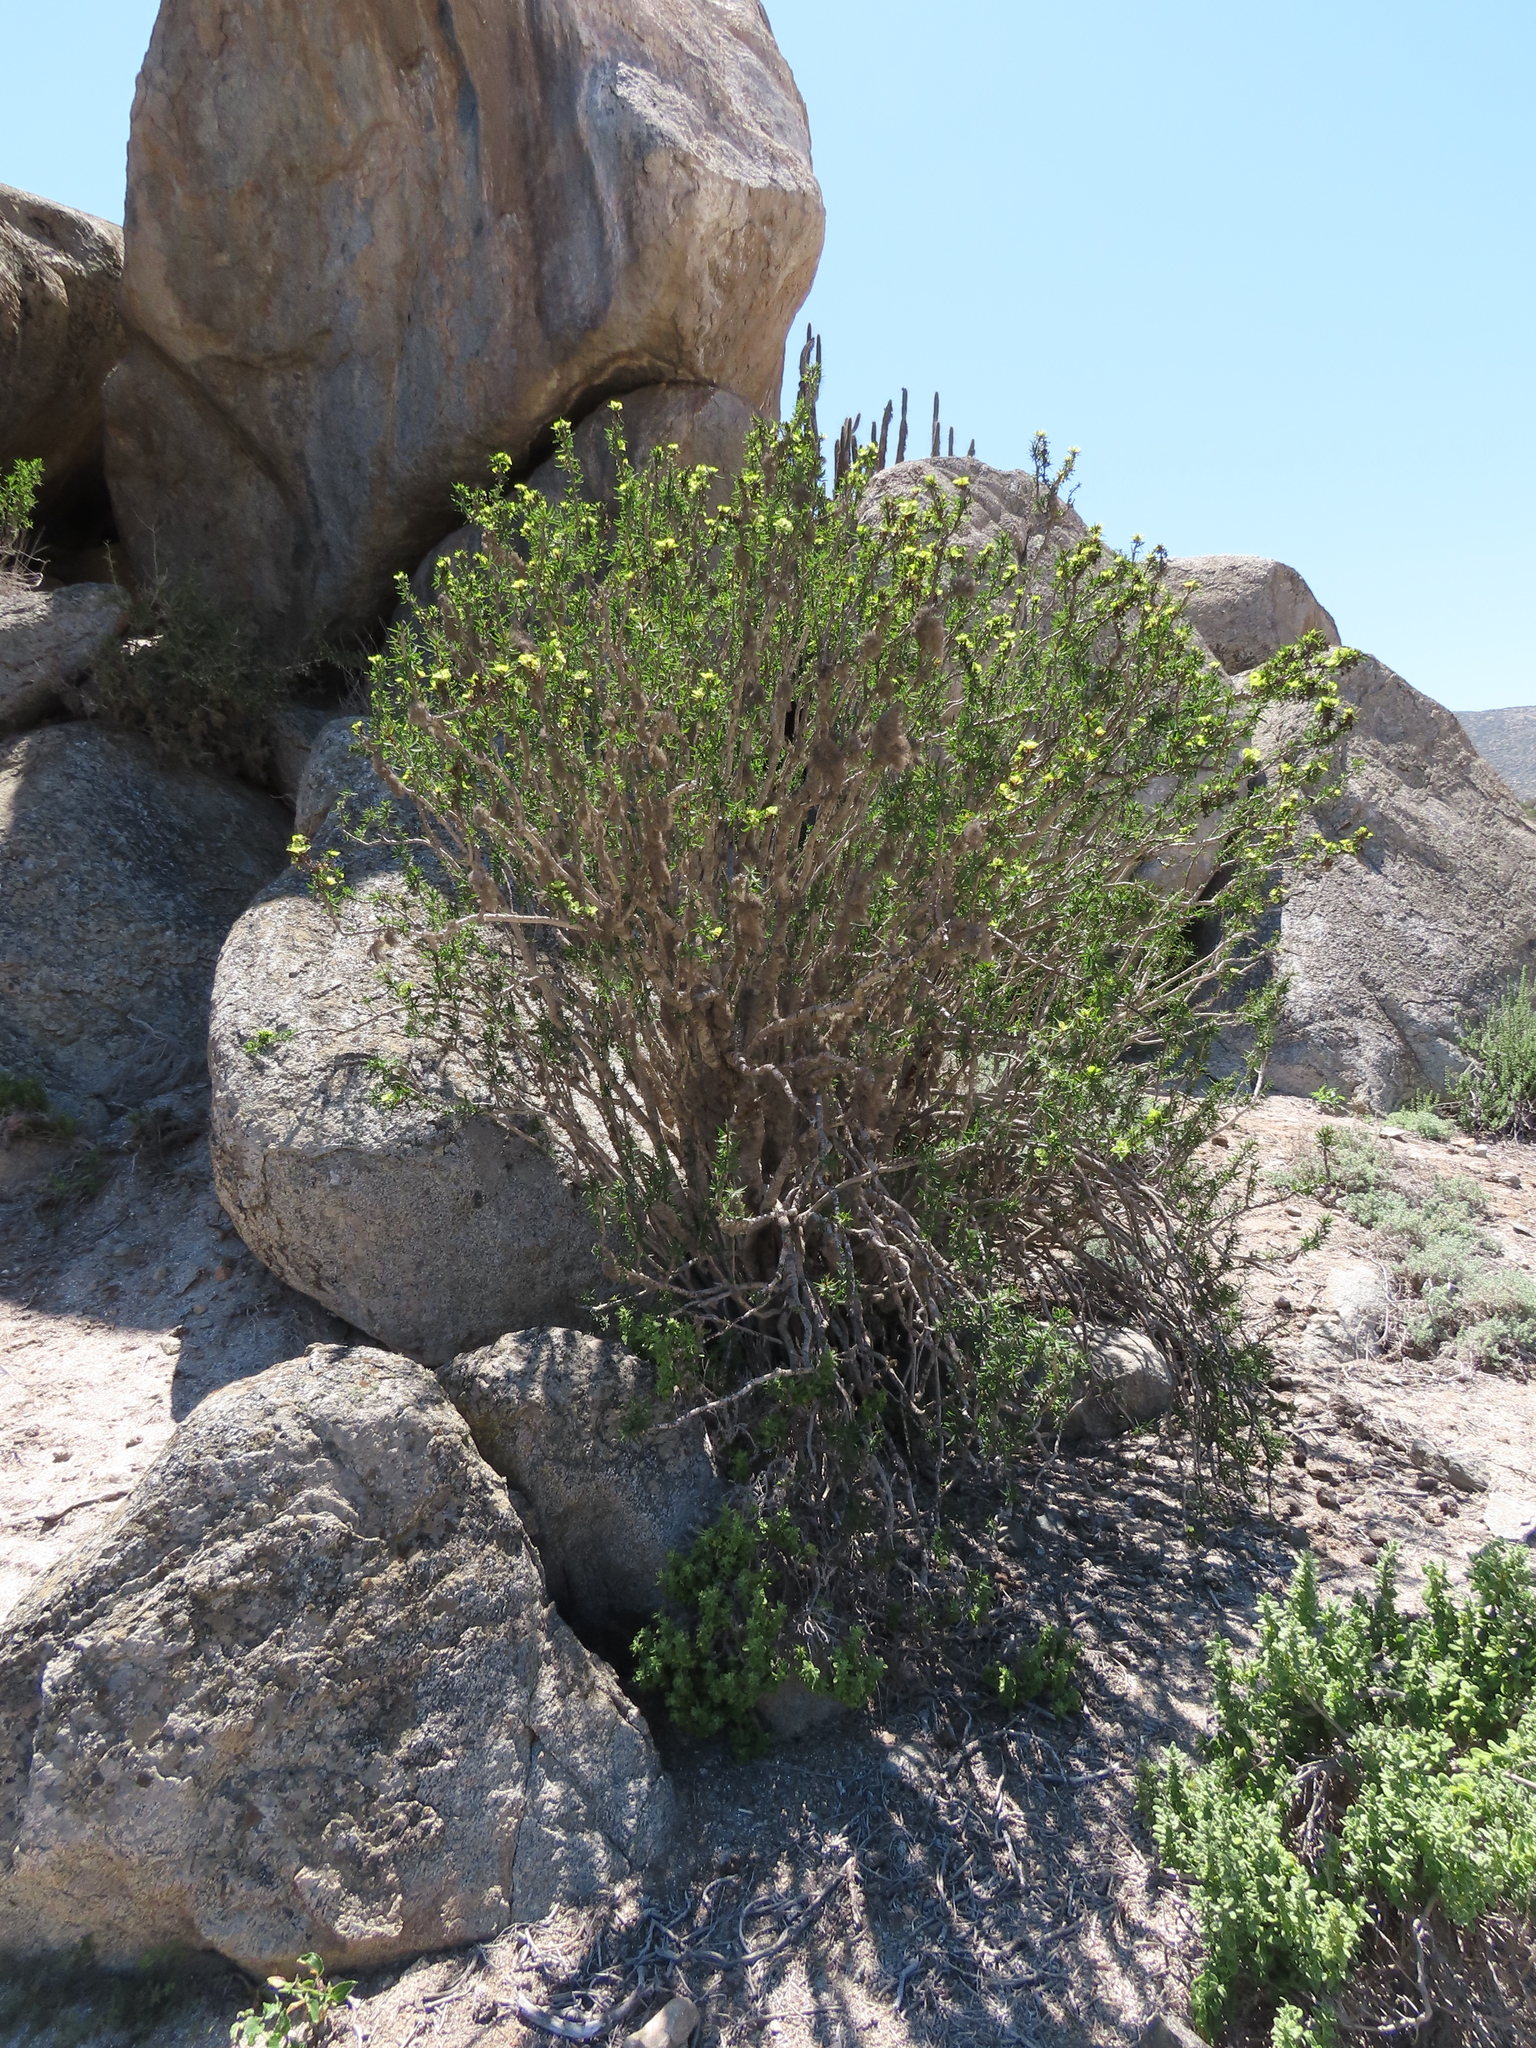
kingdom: Plantae
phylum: Tracheophyta
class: Magnoliopsida
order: Malpighiales
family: Euphorbiaceae
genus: Euphorbia
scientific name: Euphorbia lactiflua
